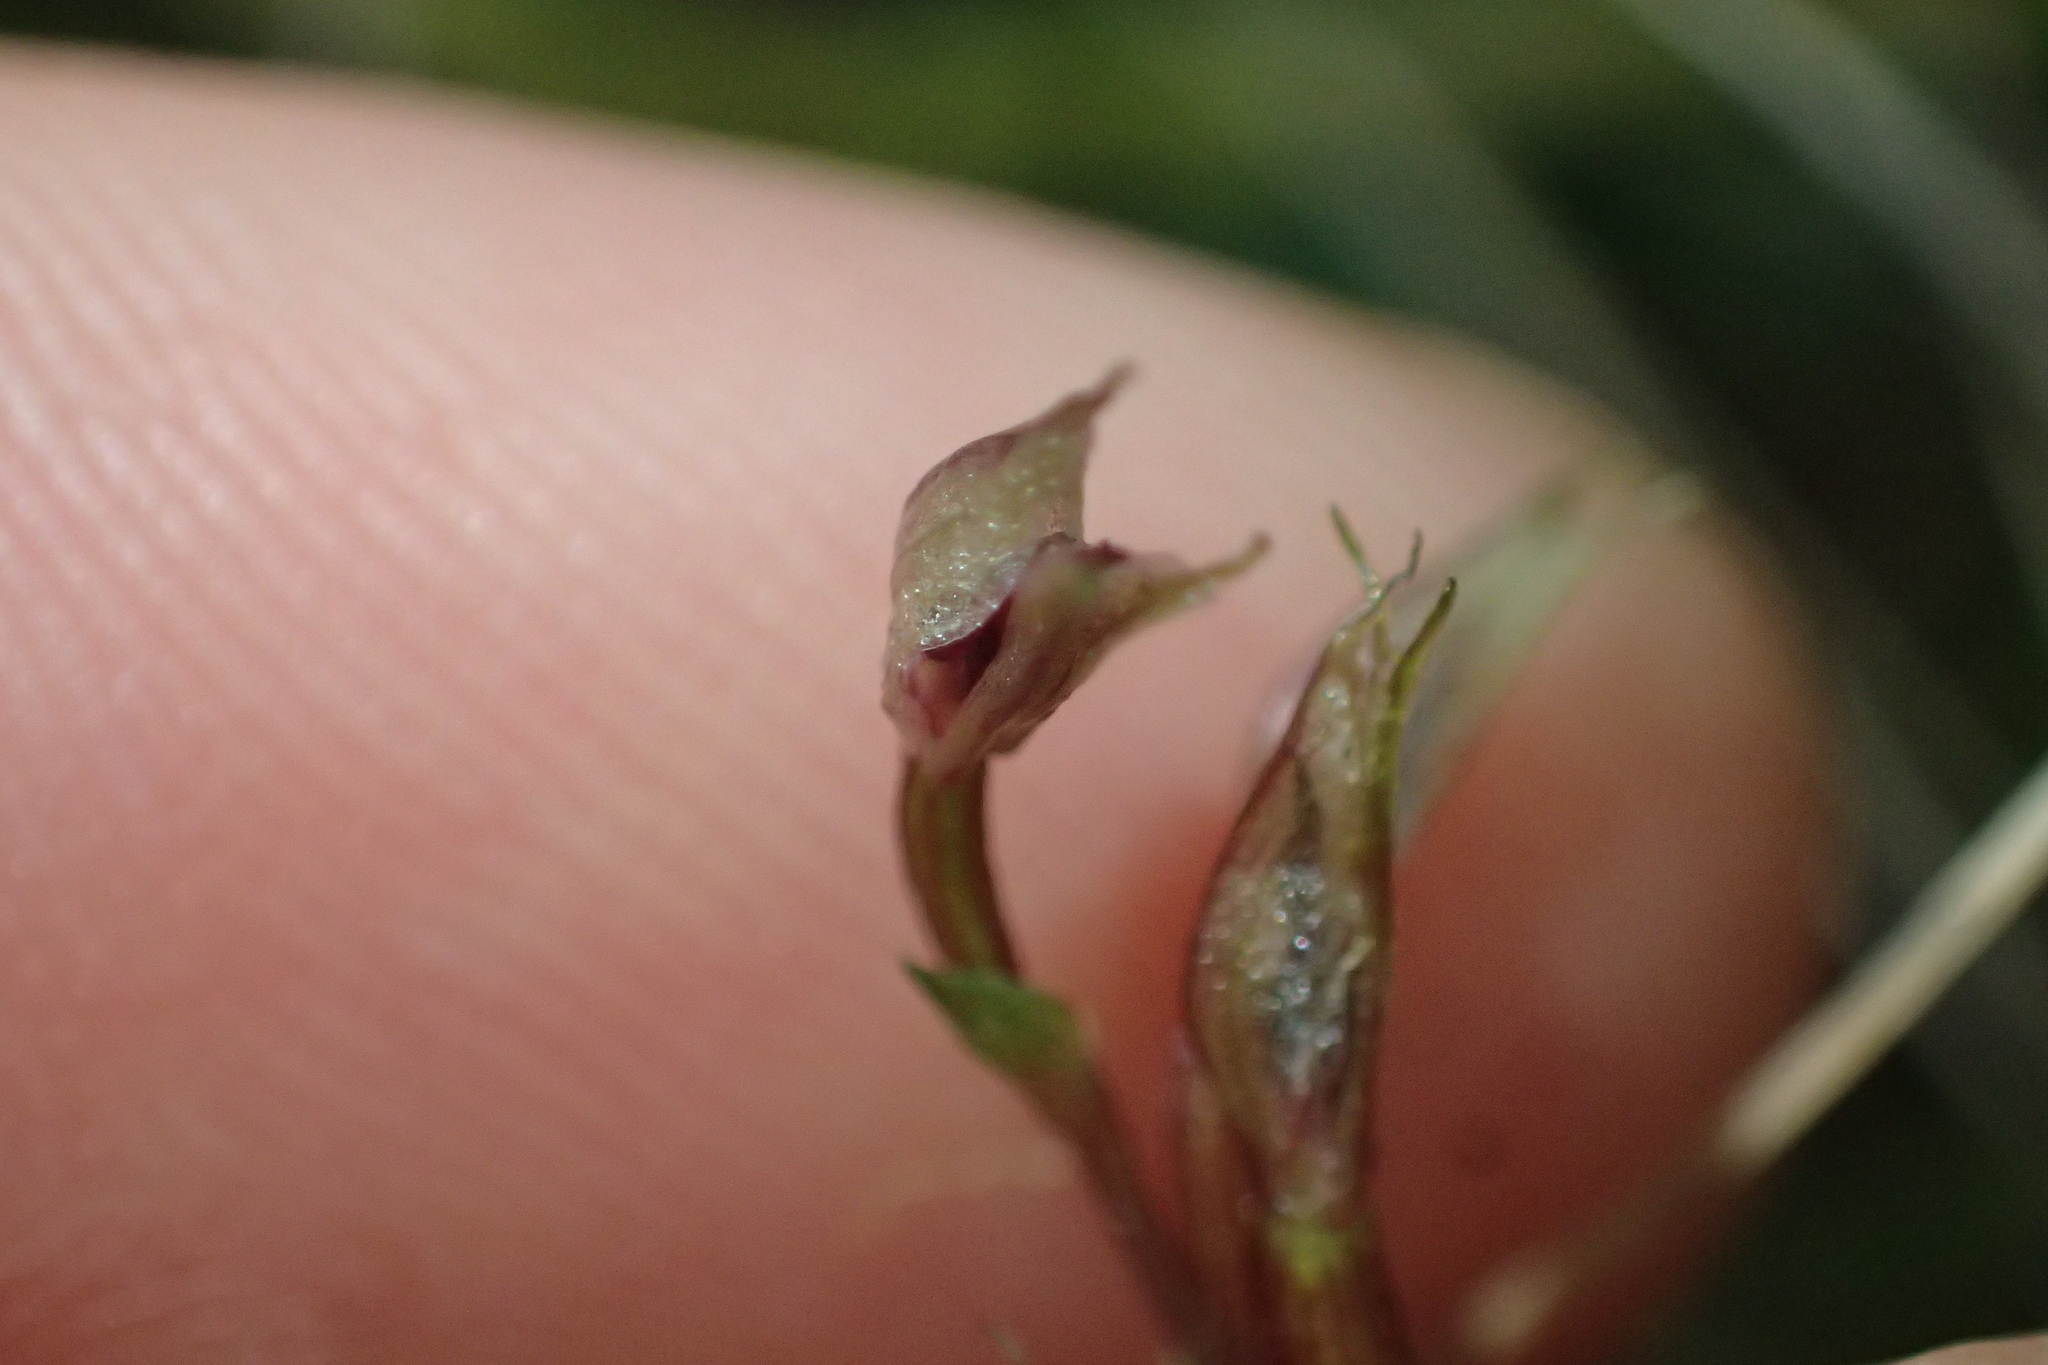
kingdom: Plantae
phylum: Tracheophyta
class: Liliopsida
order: Asparagales
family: Orchidaceae
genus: Acianthus
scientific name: Acianthus sinclairii
